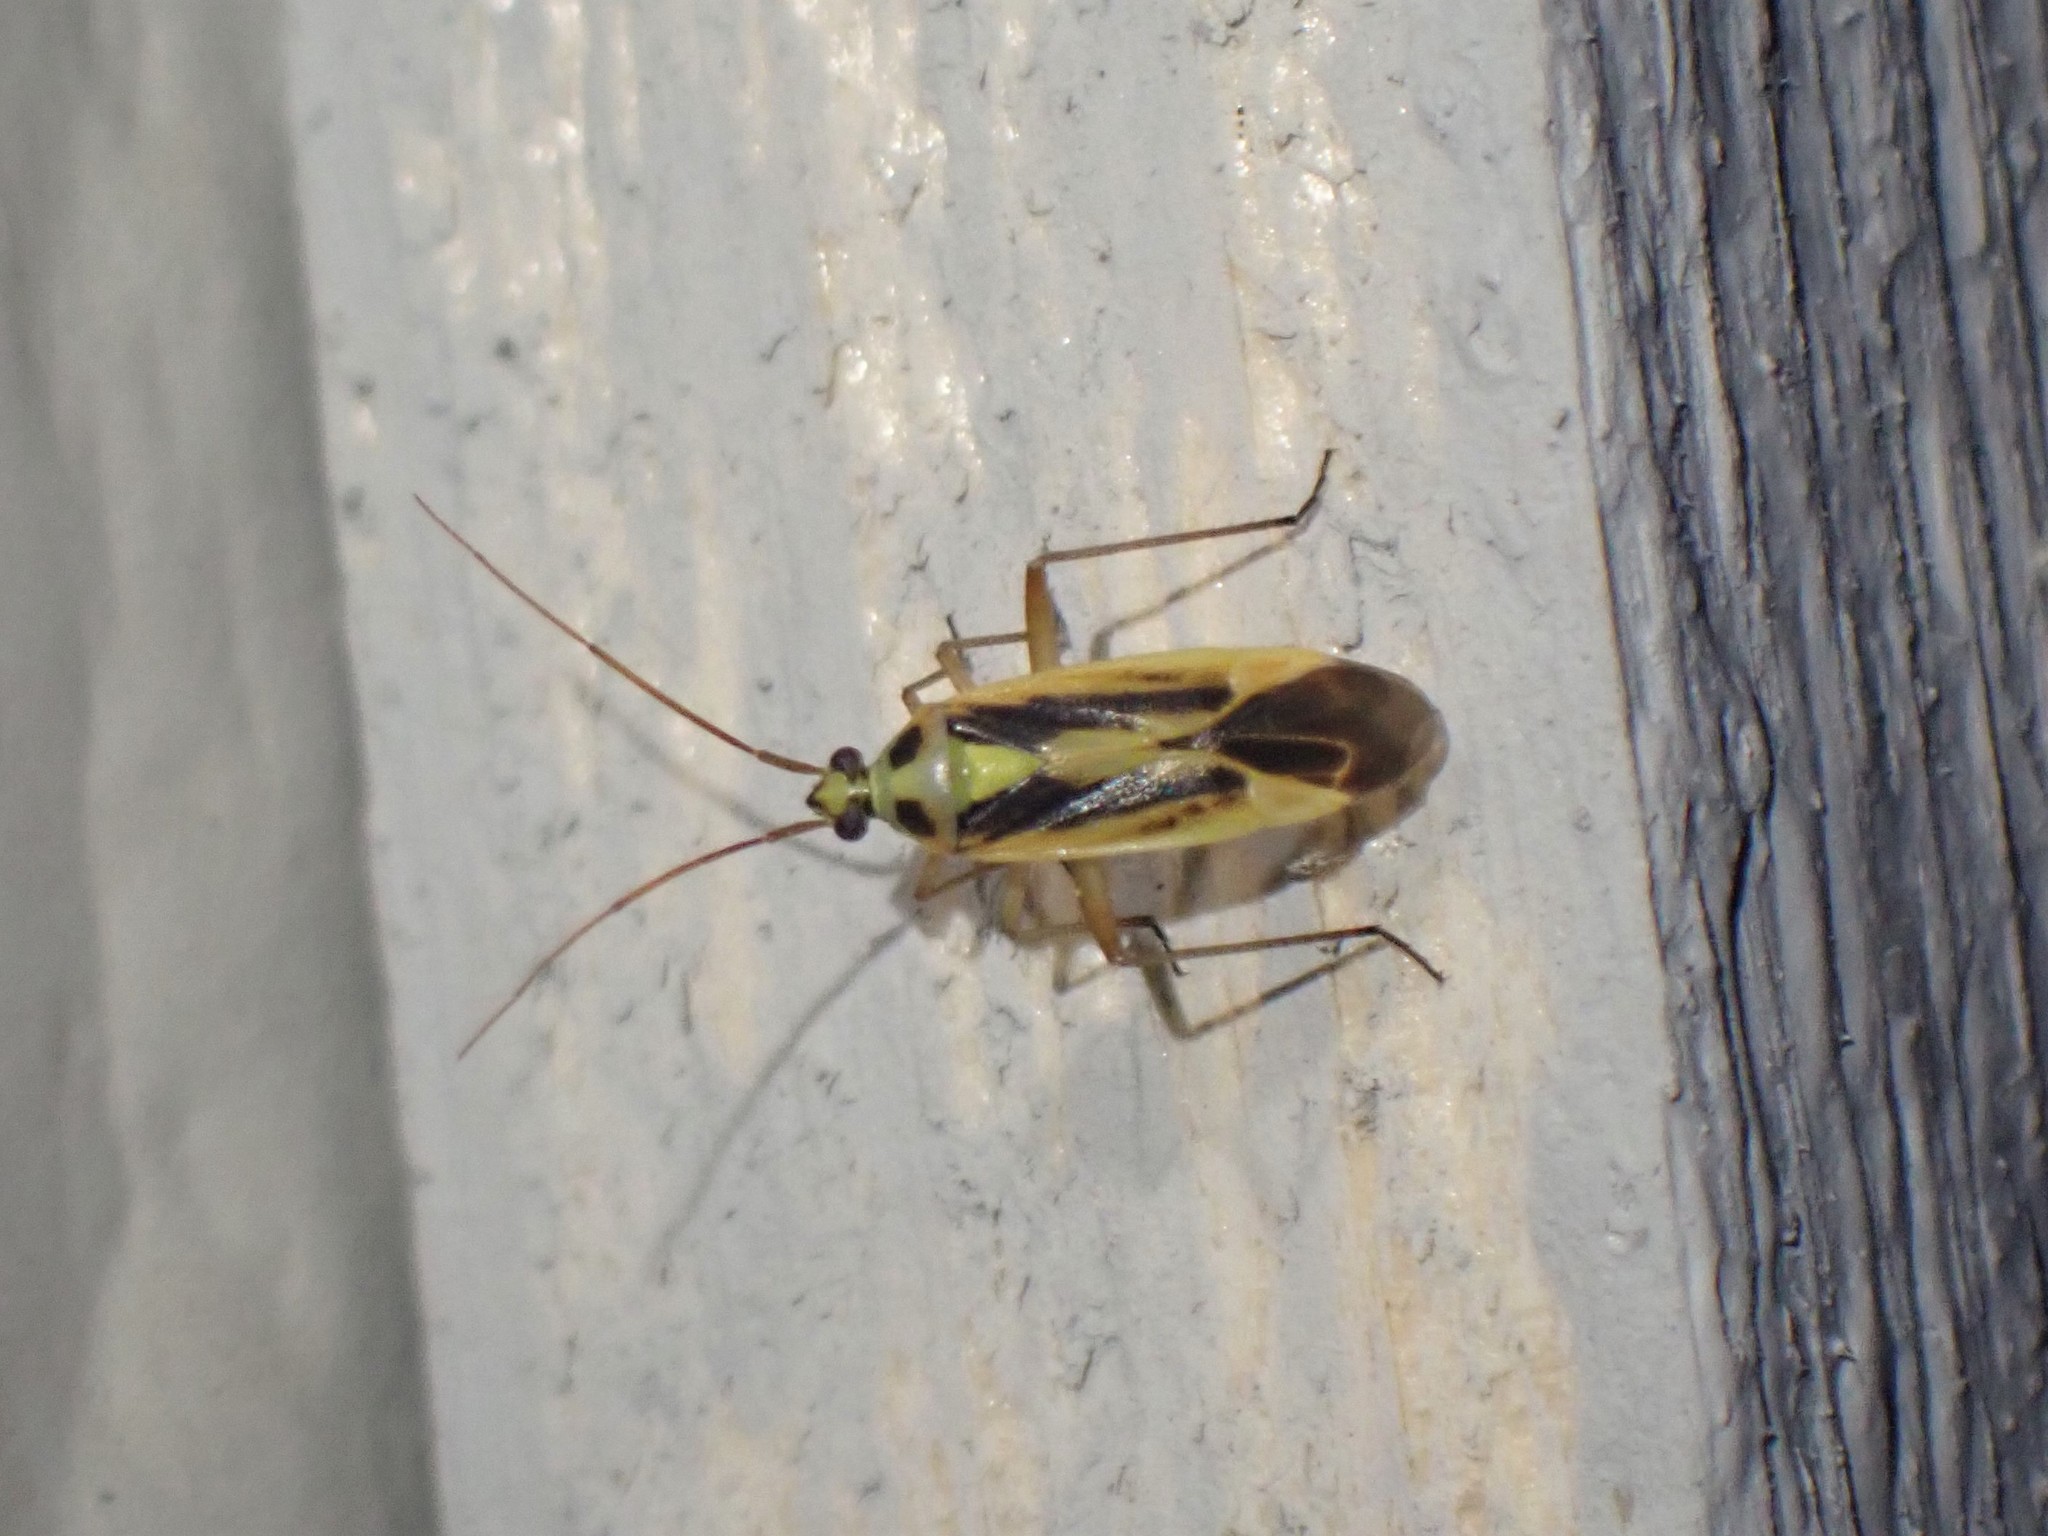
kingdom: Animalia
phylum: Arthropoda
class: Insecta
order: Hemiptera
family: Miridae
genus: Stenotus
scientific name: Stenotus binotatus
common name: Plant bug
